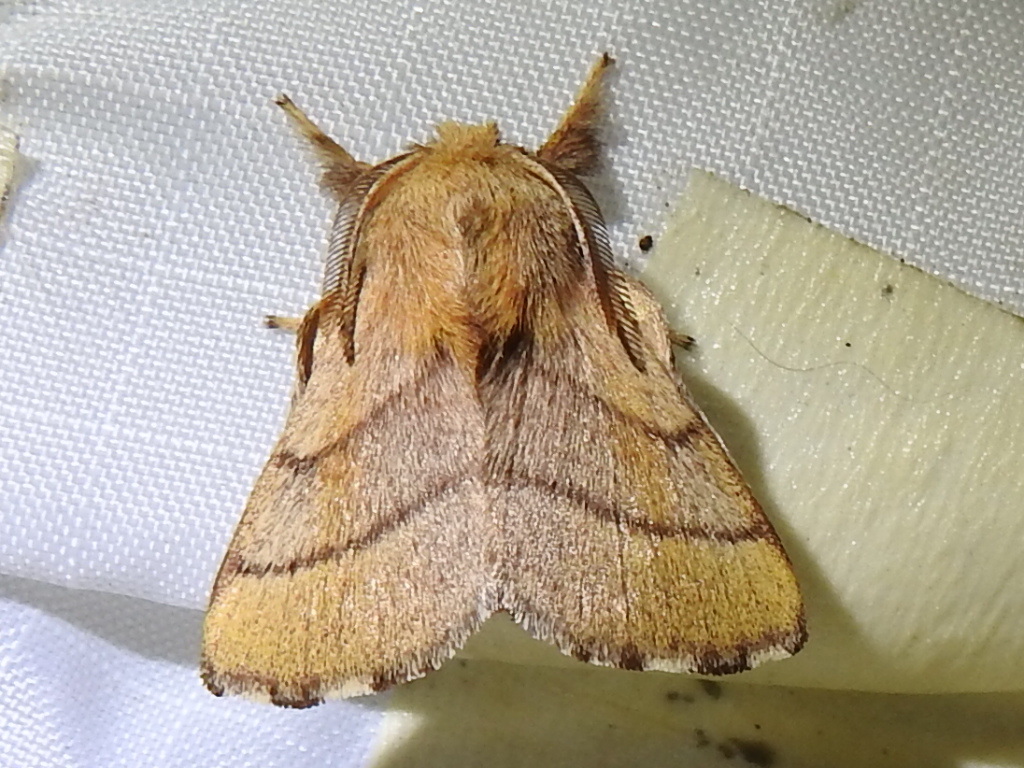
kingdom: Animalia
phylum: Arthropoda
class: Insecta
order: Lepidoptera
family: Lasiocampidae
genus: Malacosoma
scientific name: Malacosoma disstria
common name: Forest tent caterpillar
